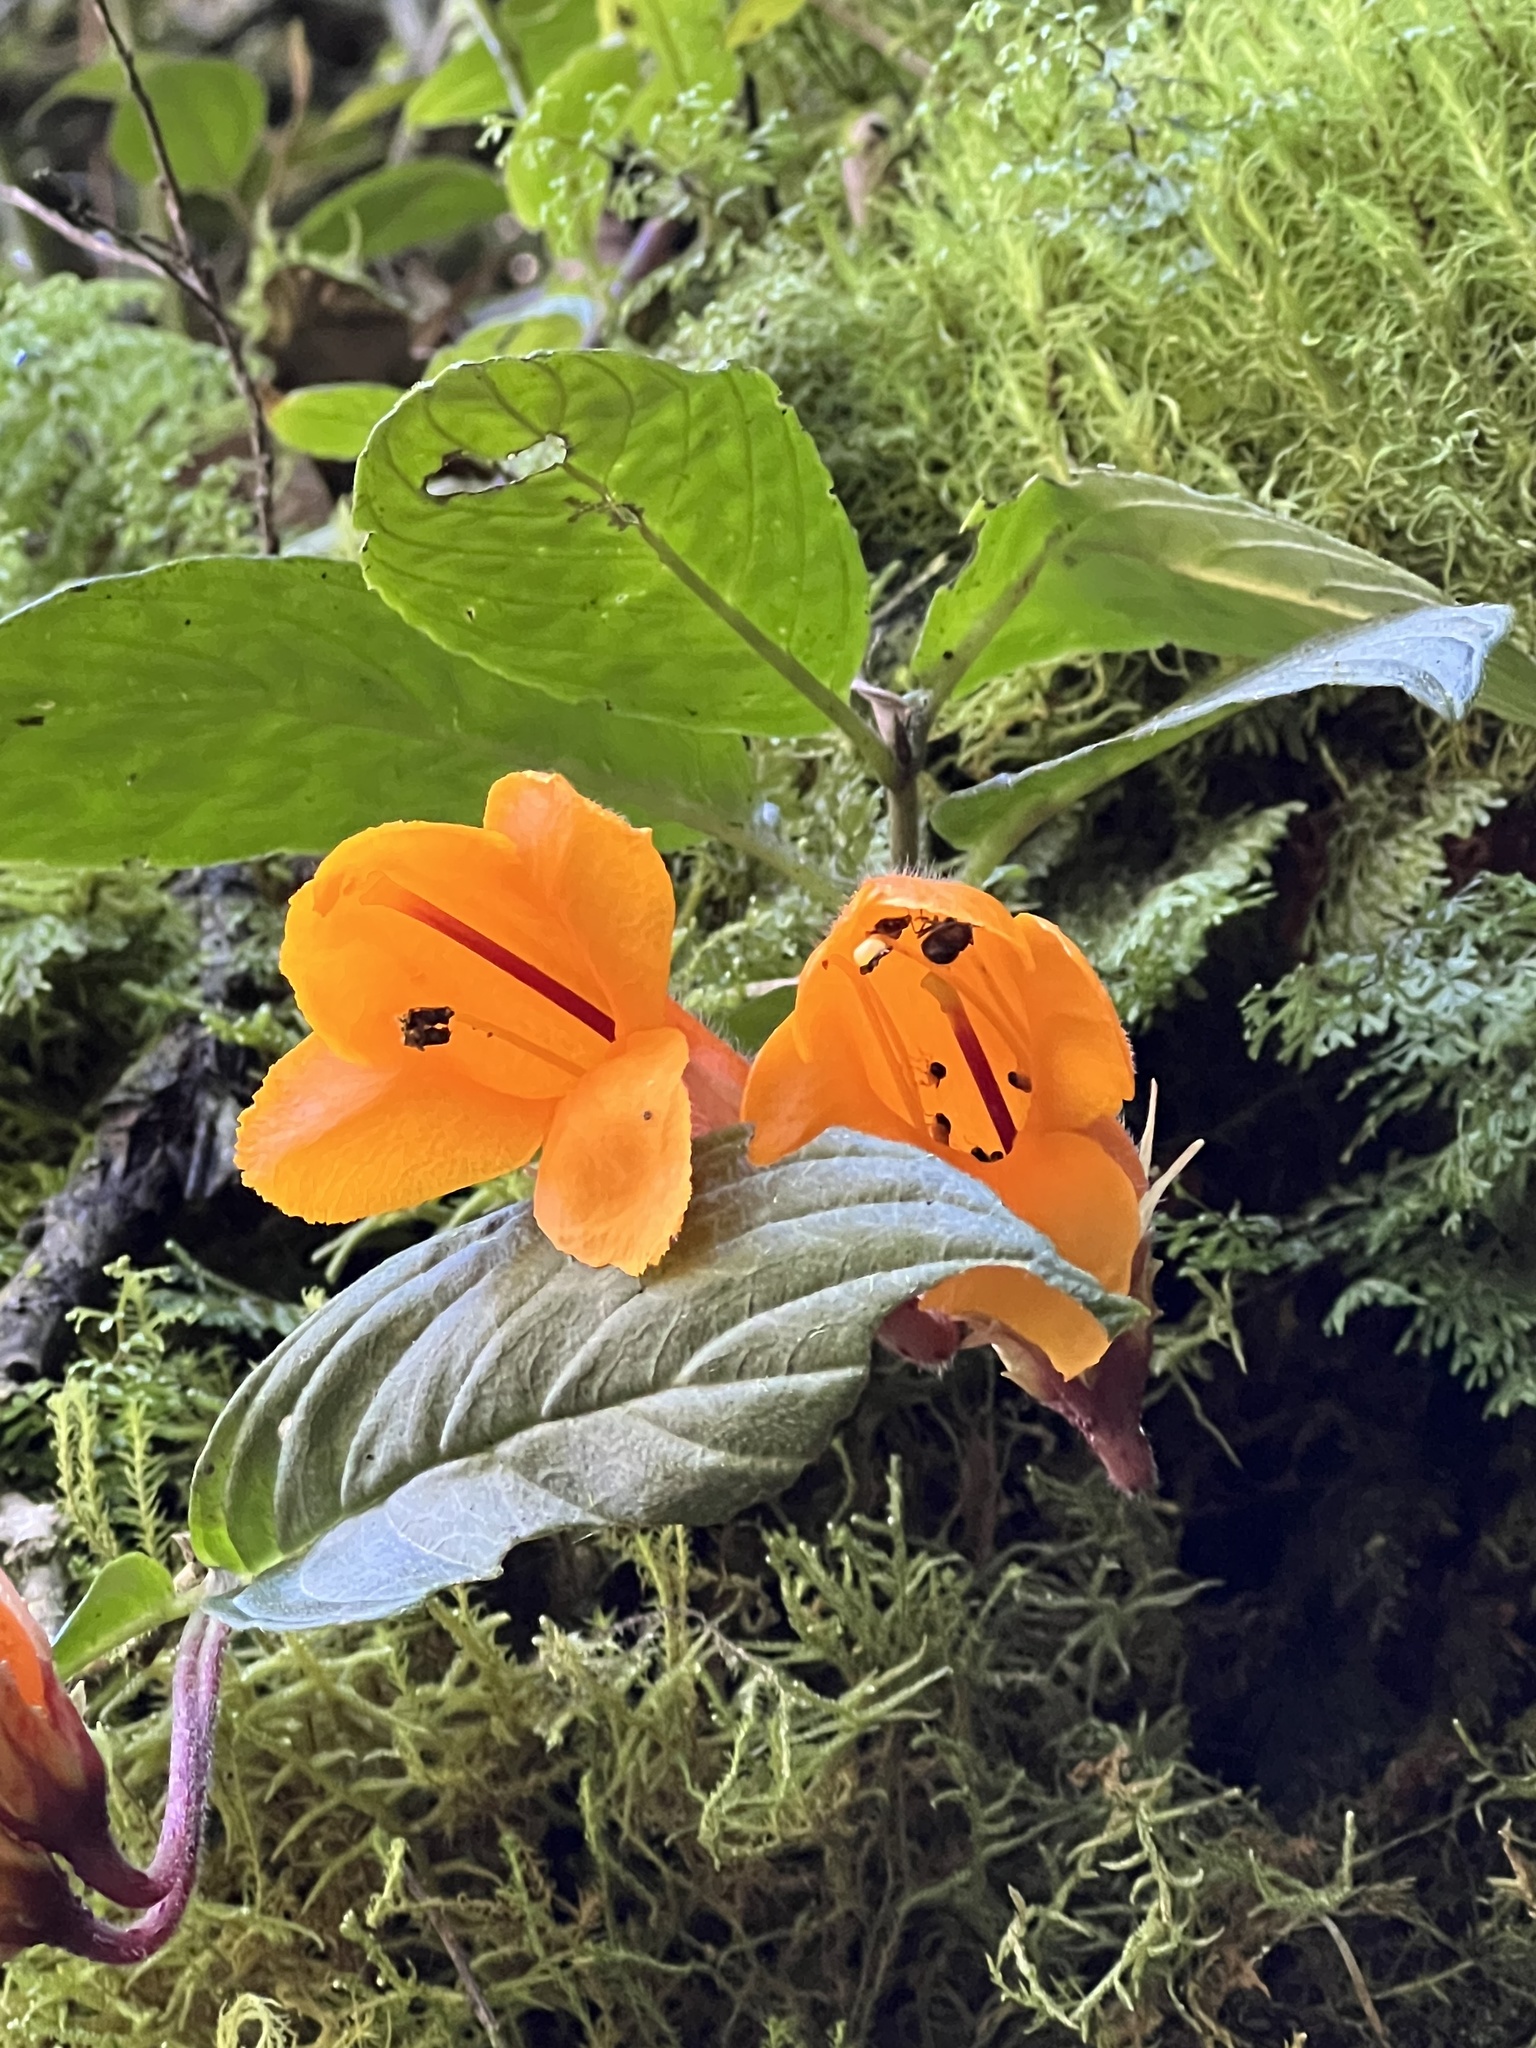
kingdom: Plantae
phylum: Tracheophyta
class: Magnoliopsida
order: Lamiales
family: Gesneriaceae
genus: Columnea
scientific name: Columnea strigosa
